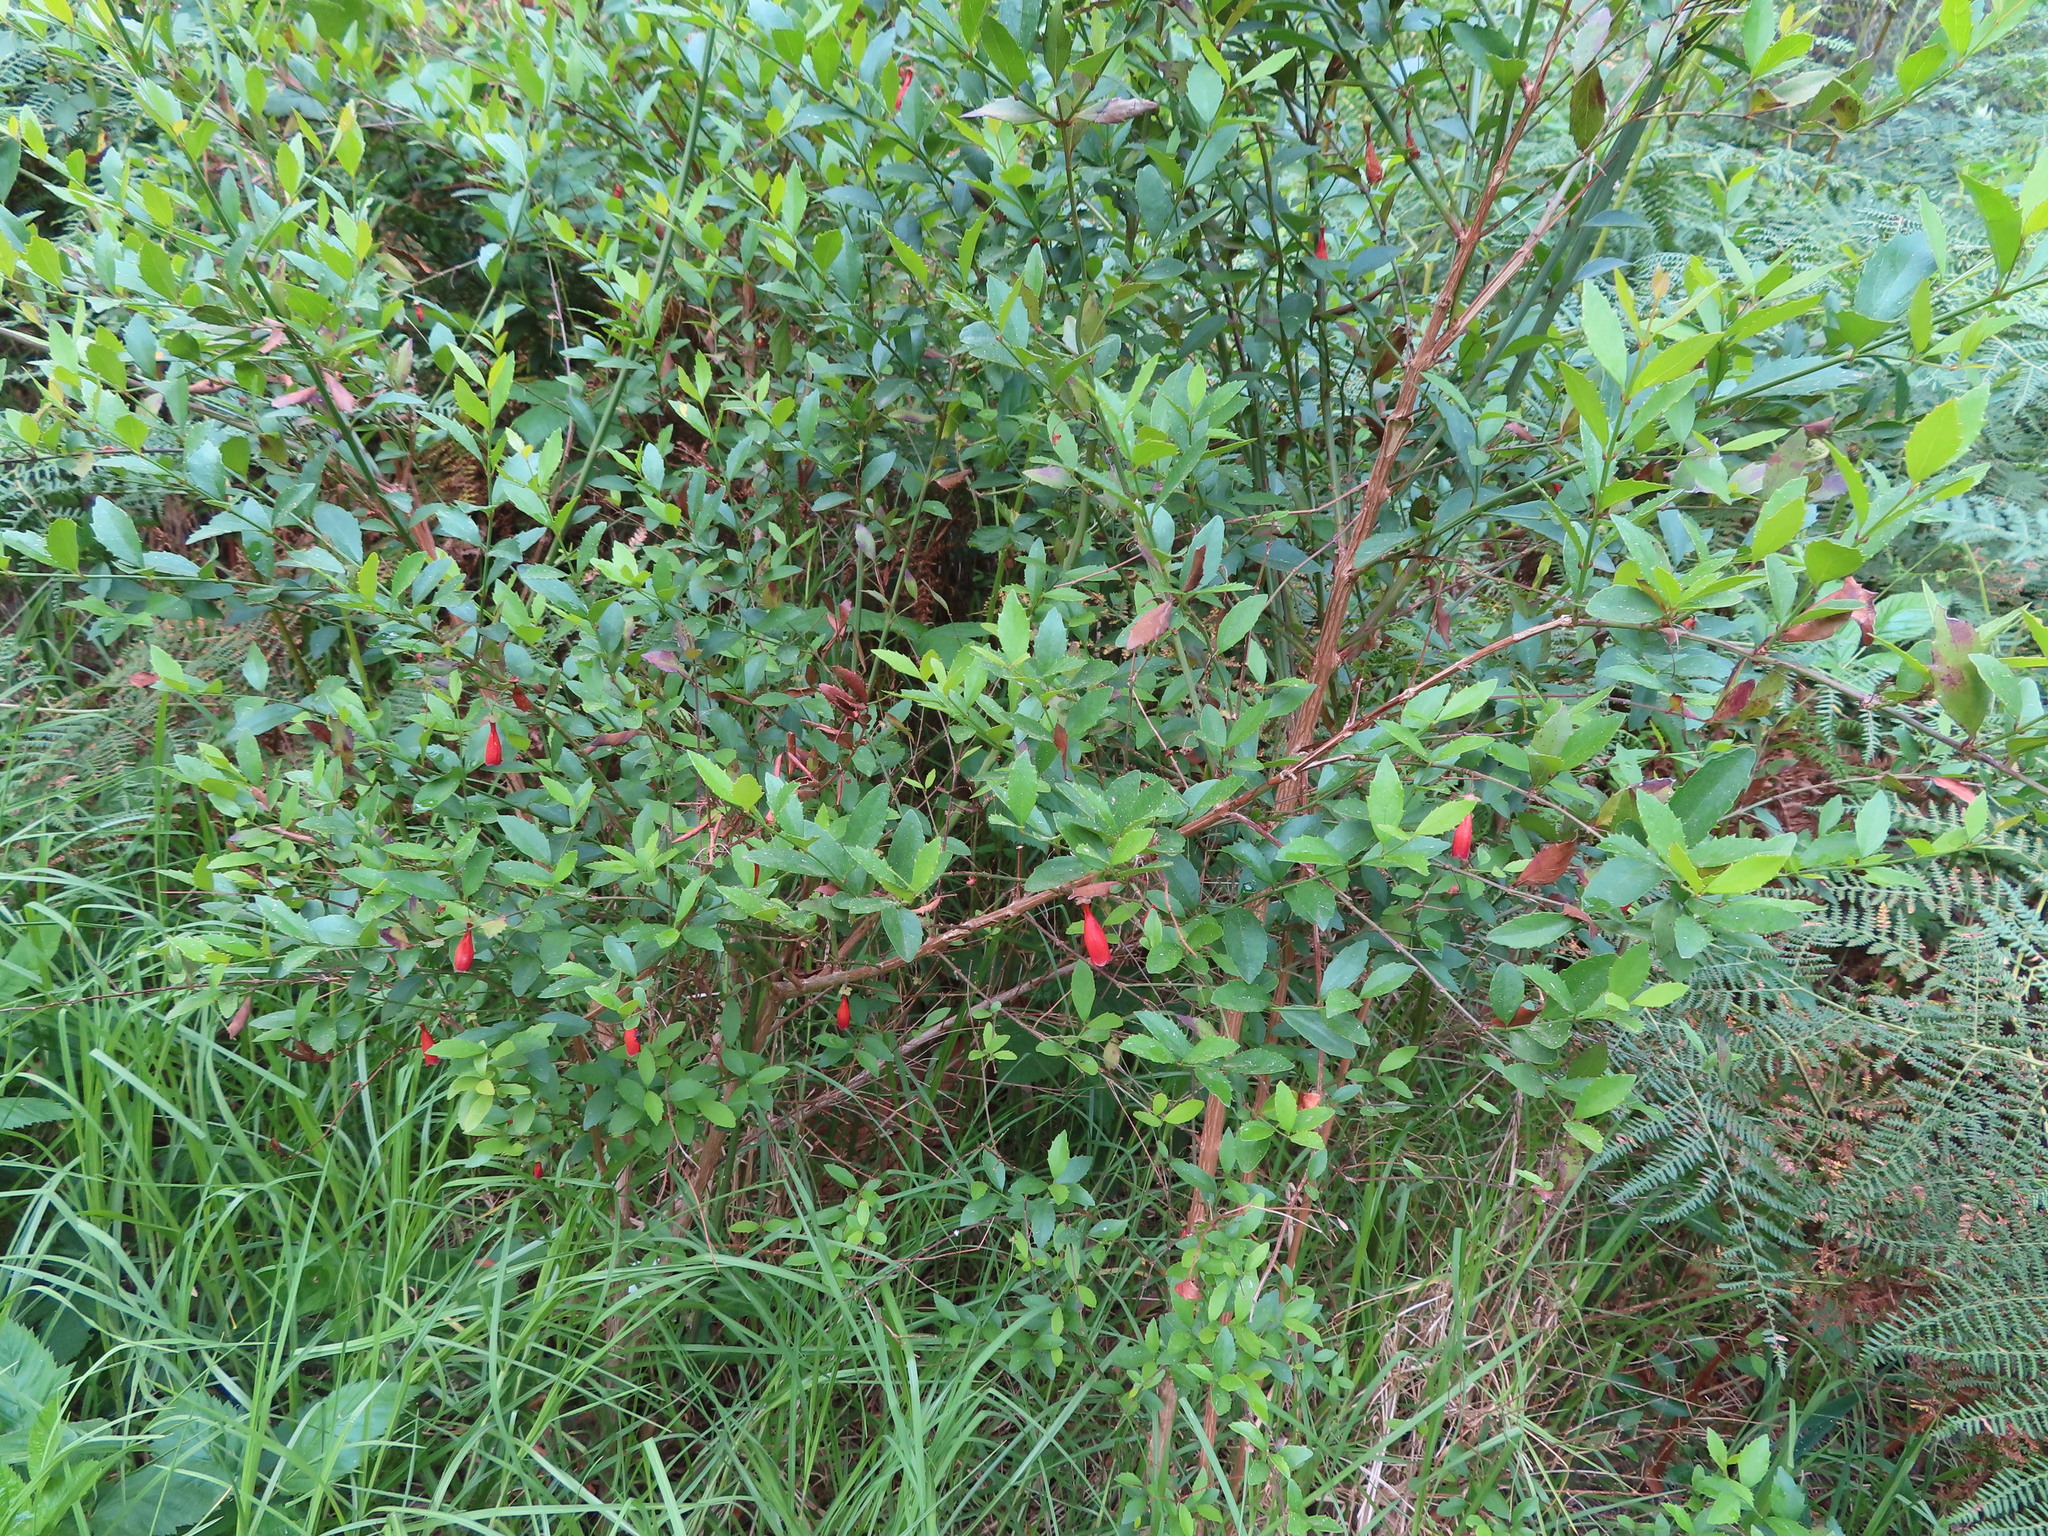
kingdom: Plantae
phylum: Tracheophyta
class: Magnoliopsida
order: Lamiales
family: Stilbaceae
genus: Halleria
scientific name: Halleria elliptica
